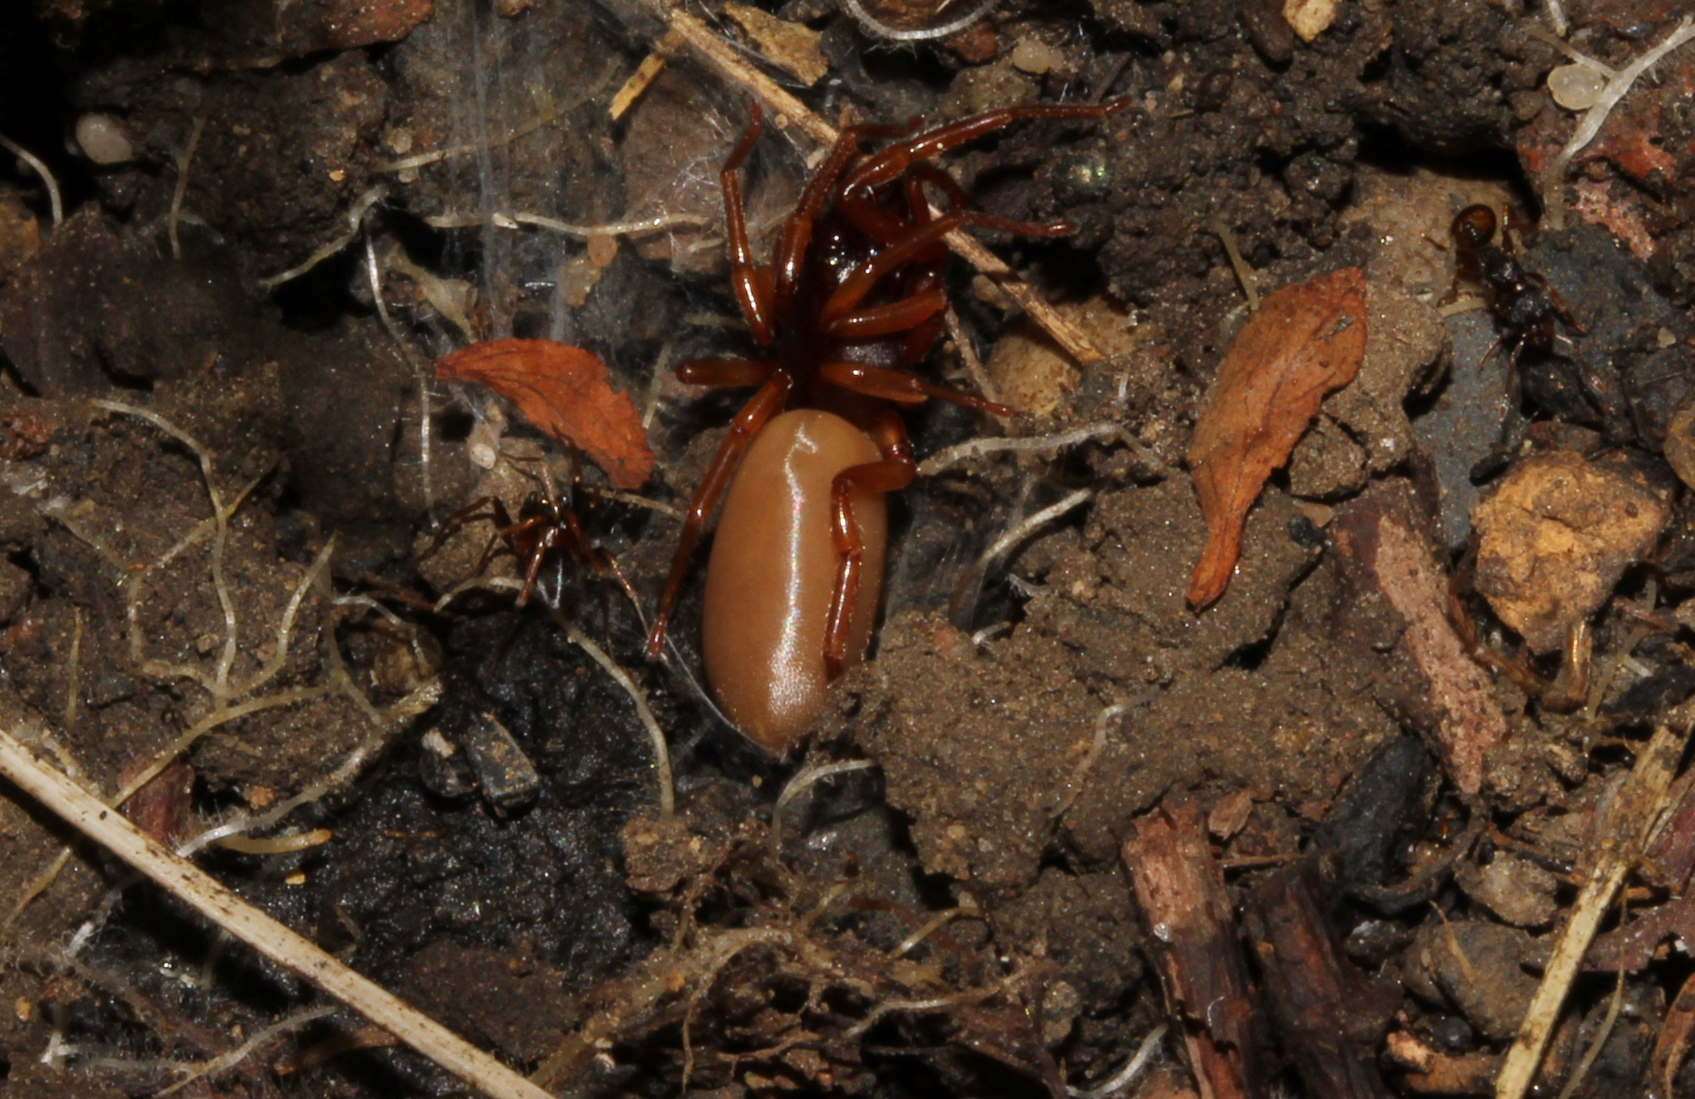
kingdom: Animalia
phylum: Arthropoda
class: Arachnida
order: Araneae
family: Dysderidae
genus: Dysdera
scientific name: Dysdera
